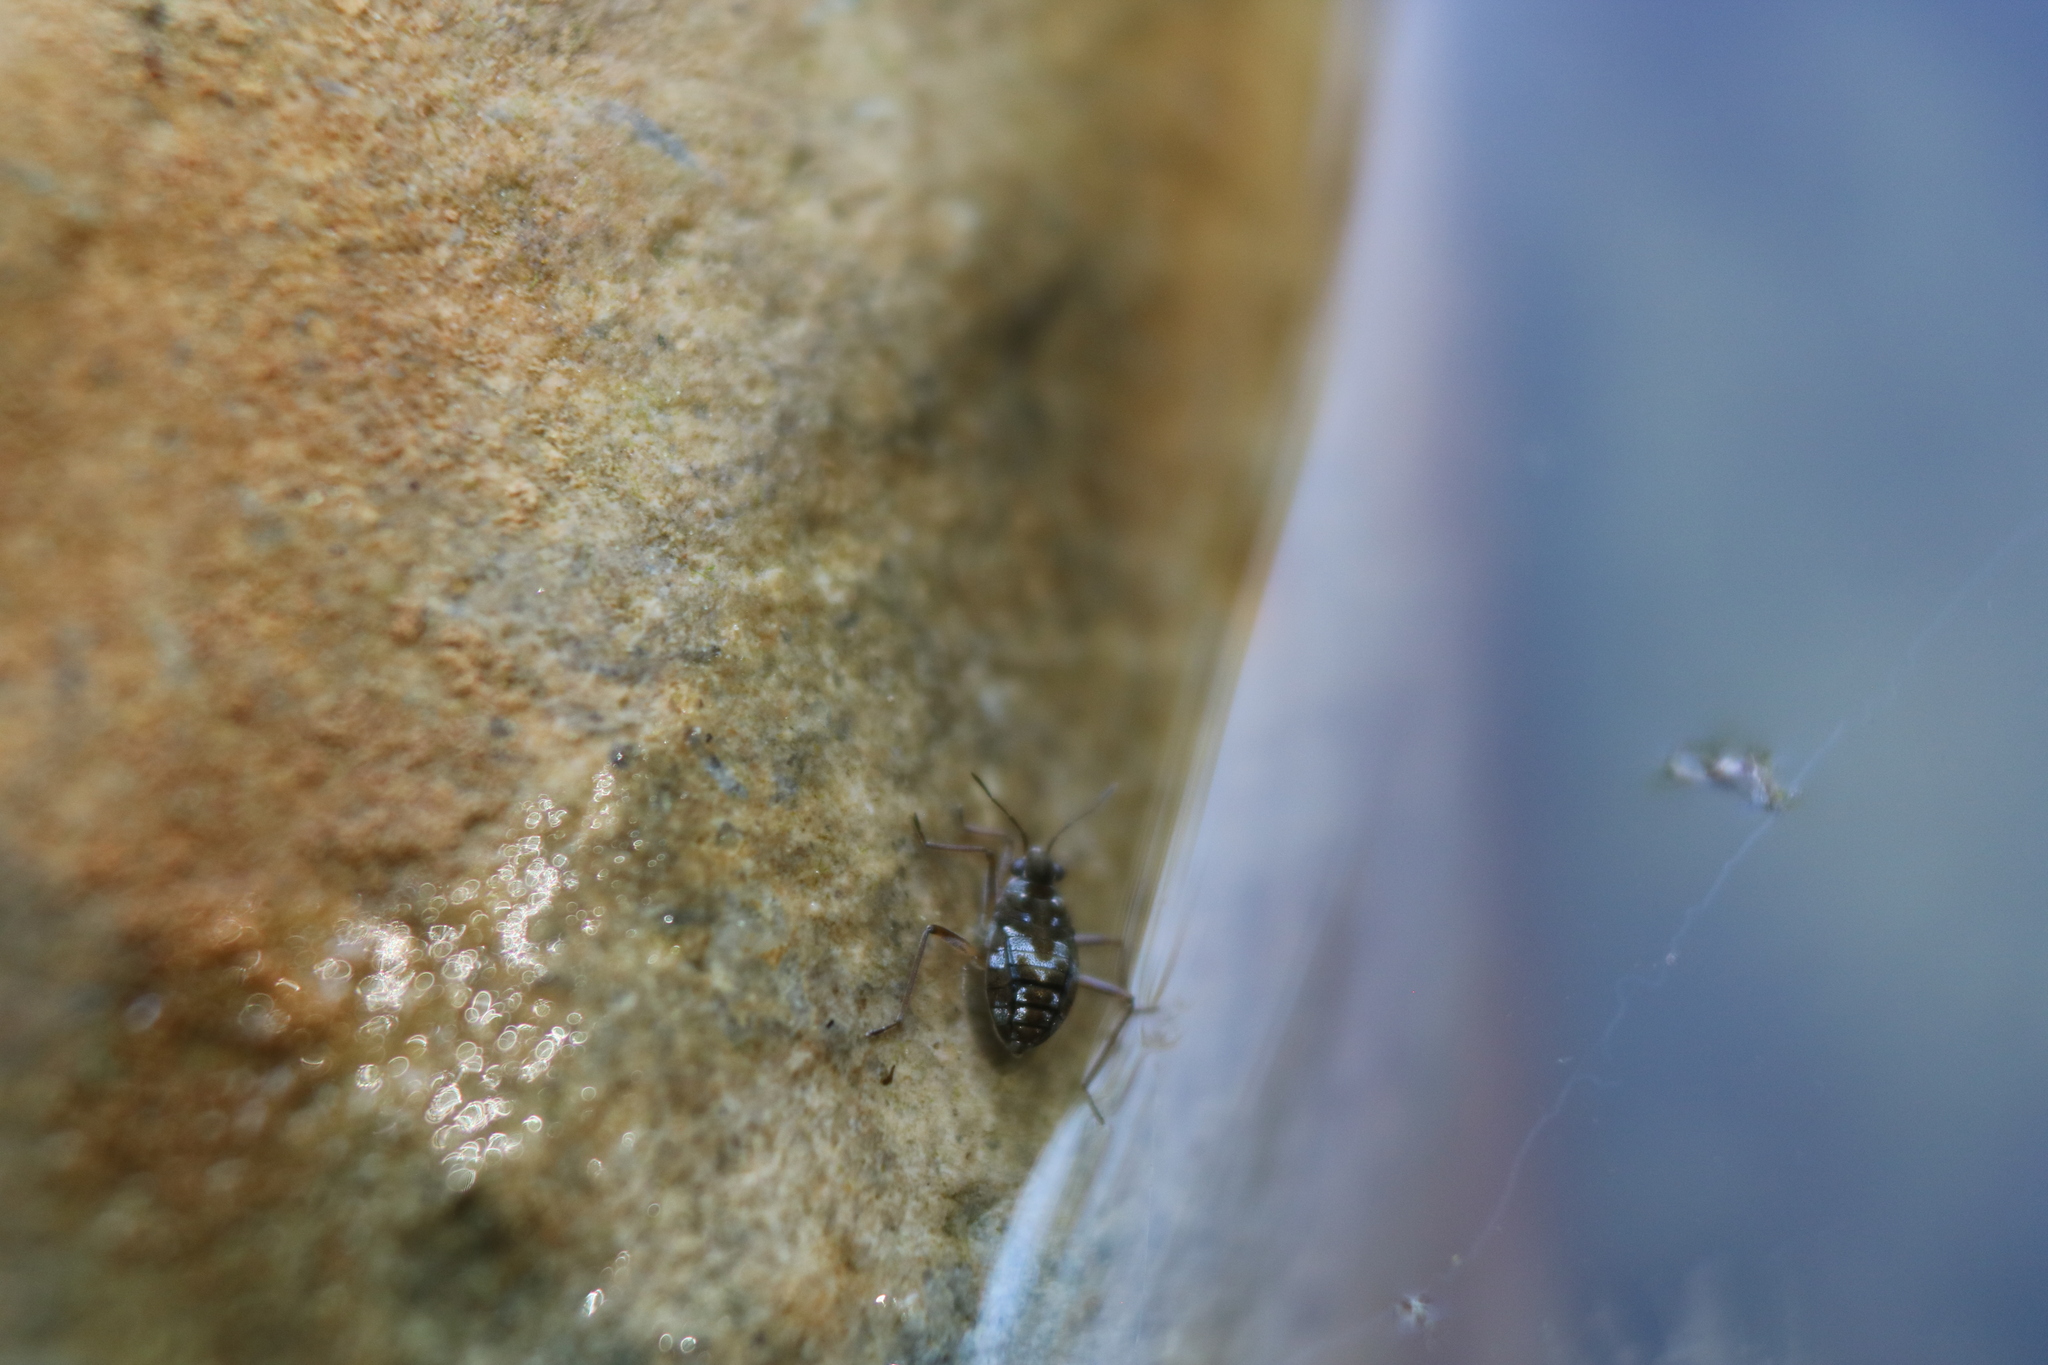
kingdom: Animalia
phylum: Arthropoda
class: Insecta
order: Hemiptera
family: Veliidae
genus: Microvelia
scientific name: Microvelia americana
